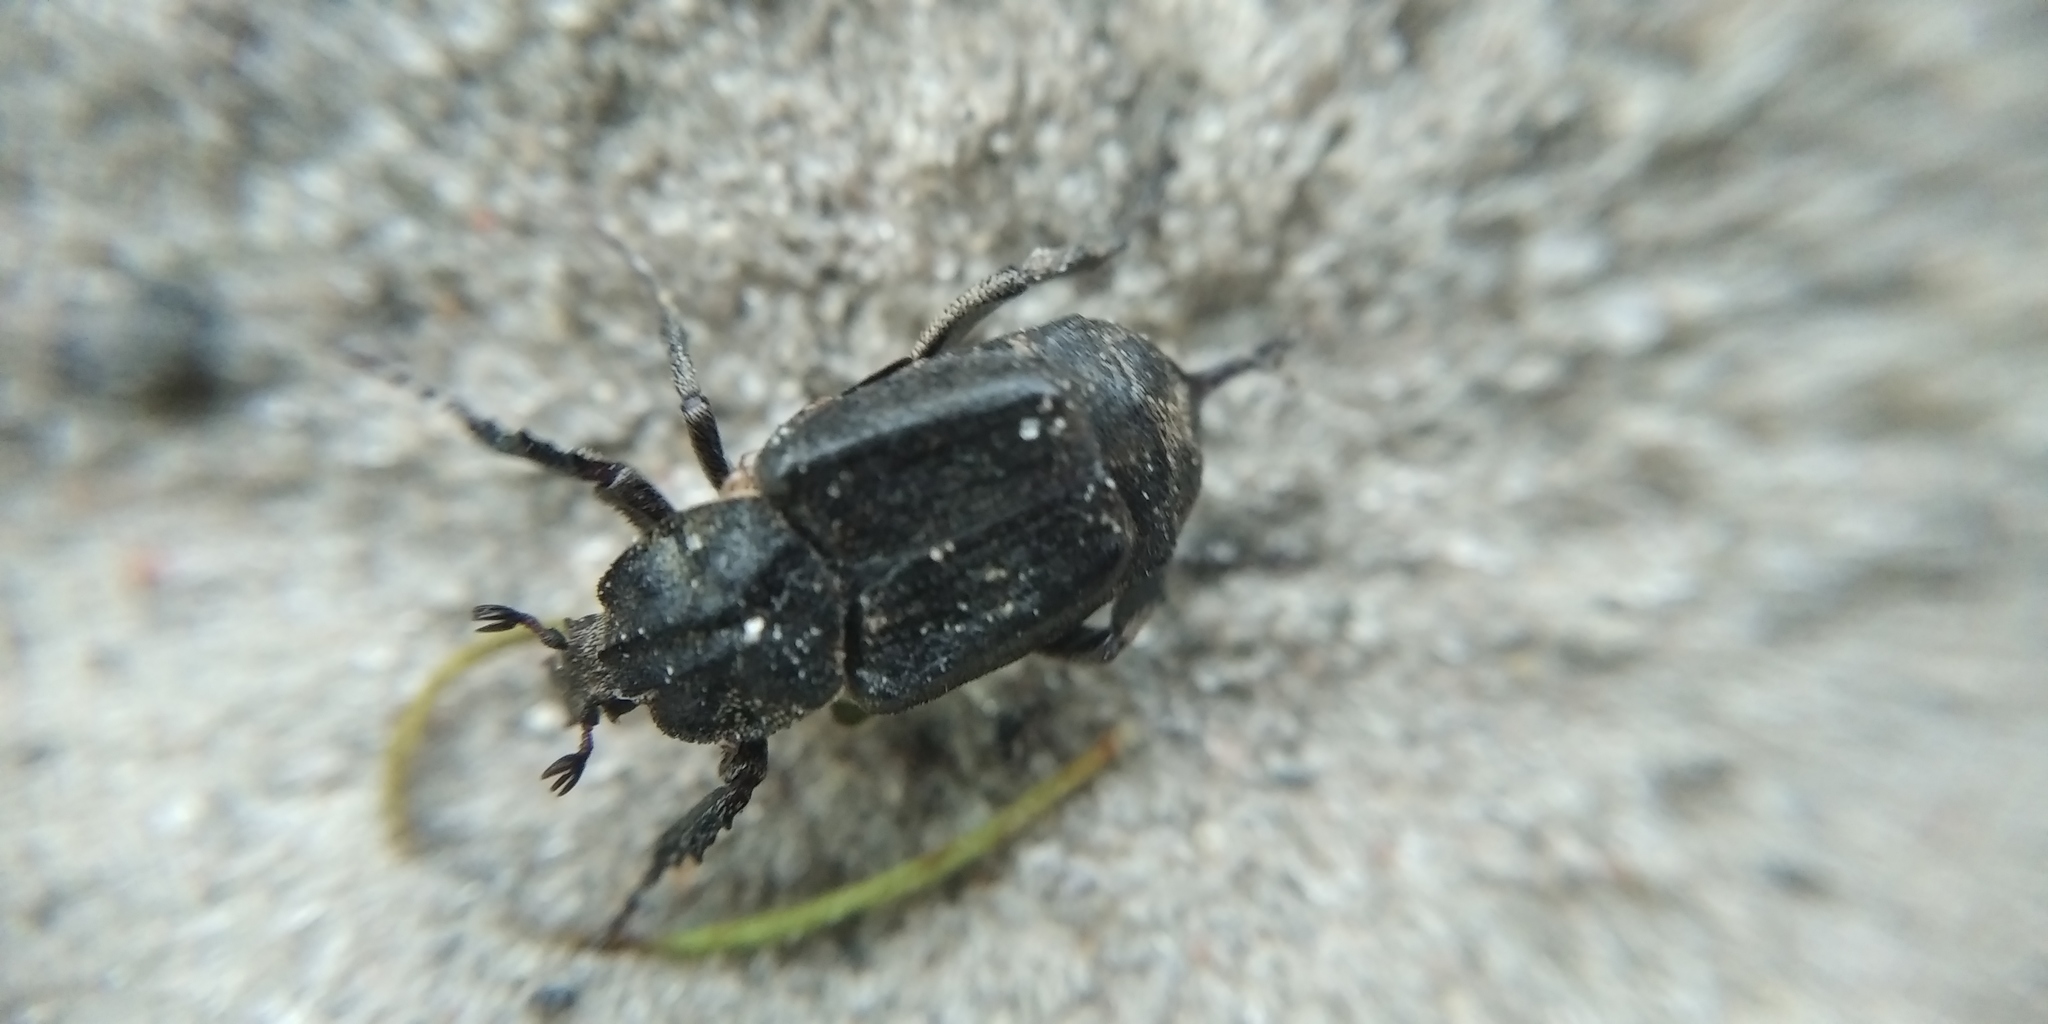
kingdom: Animalia
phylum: Arthropoda
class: Insecta
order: Coleoptera
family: Scarabaeidae
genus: Valgus
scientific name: Valgus hemipterus
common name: Bug flower chafer
